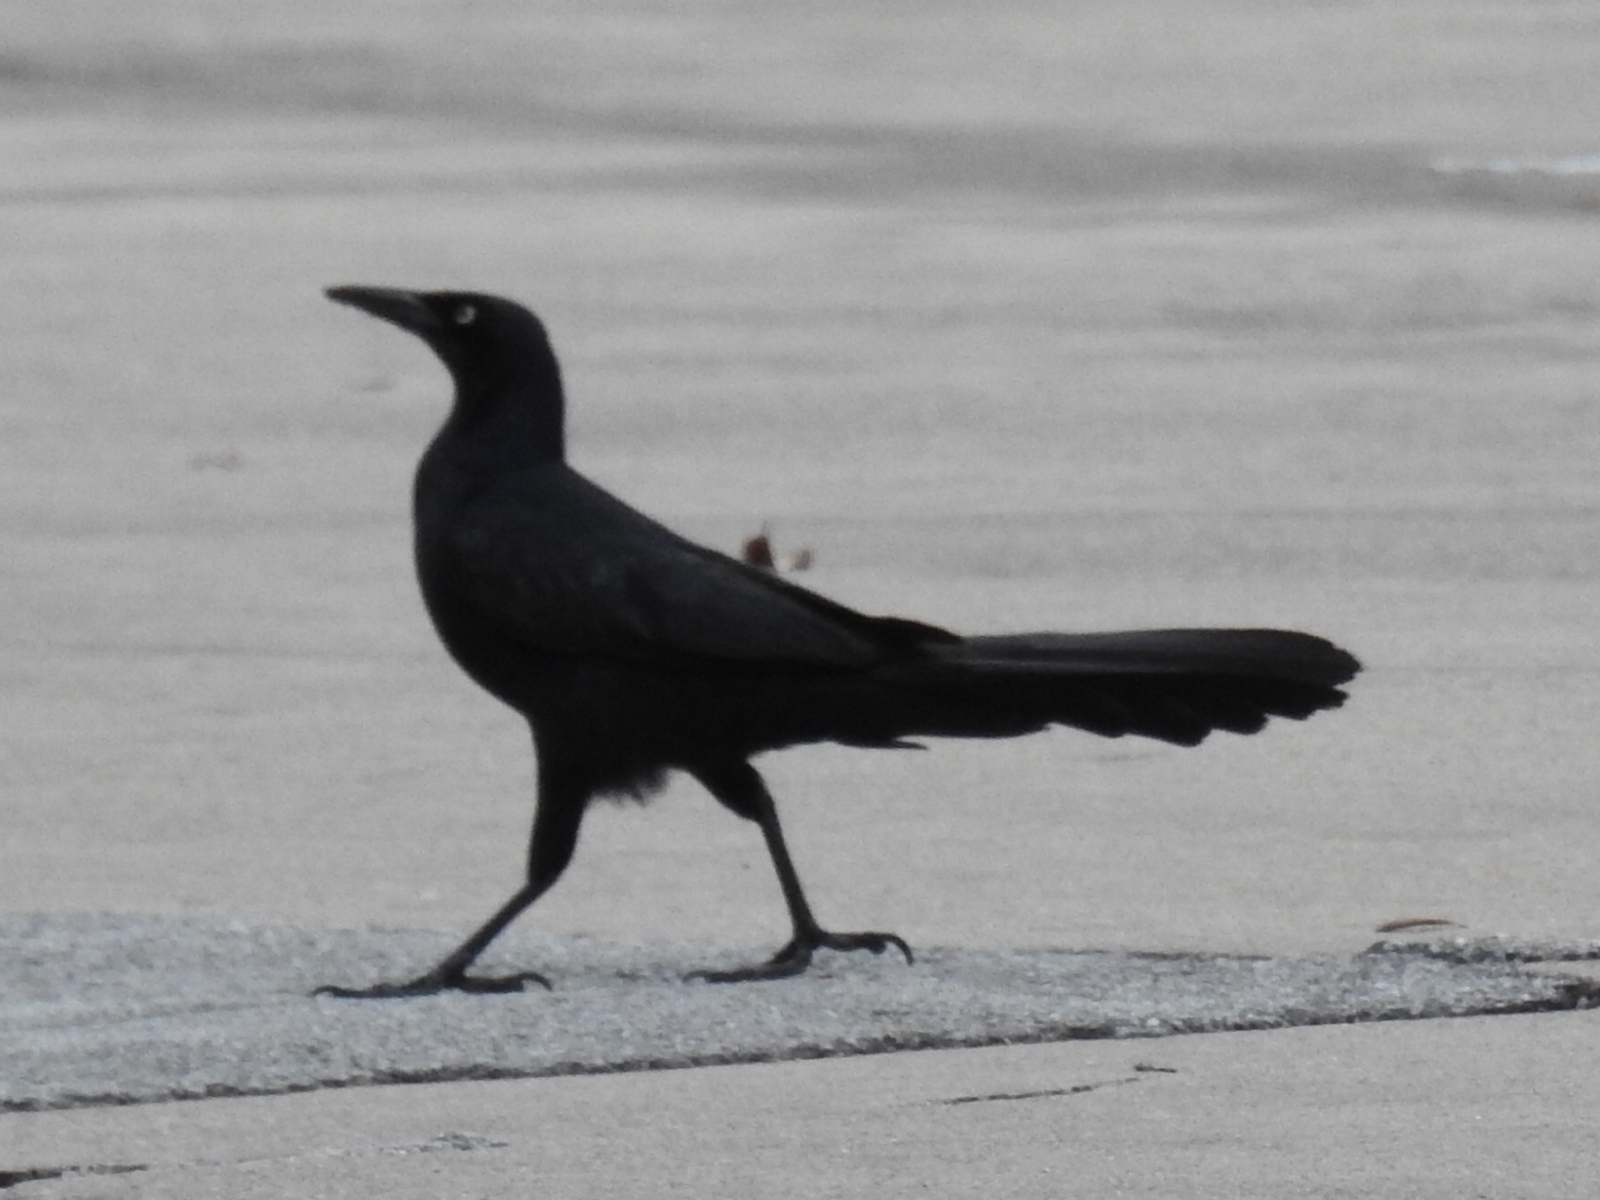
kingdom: Animalia
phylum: Chordata
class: Aves
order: Passeriformes
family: Icteridae
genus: Quiscalus
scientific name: Quiscalus mexicanus
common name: Great-tailed grackle
